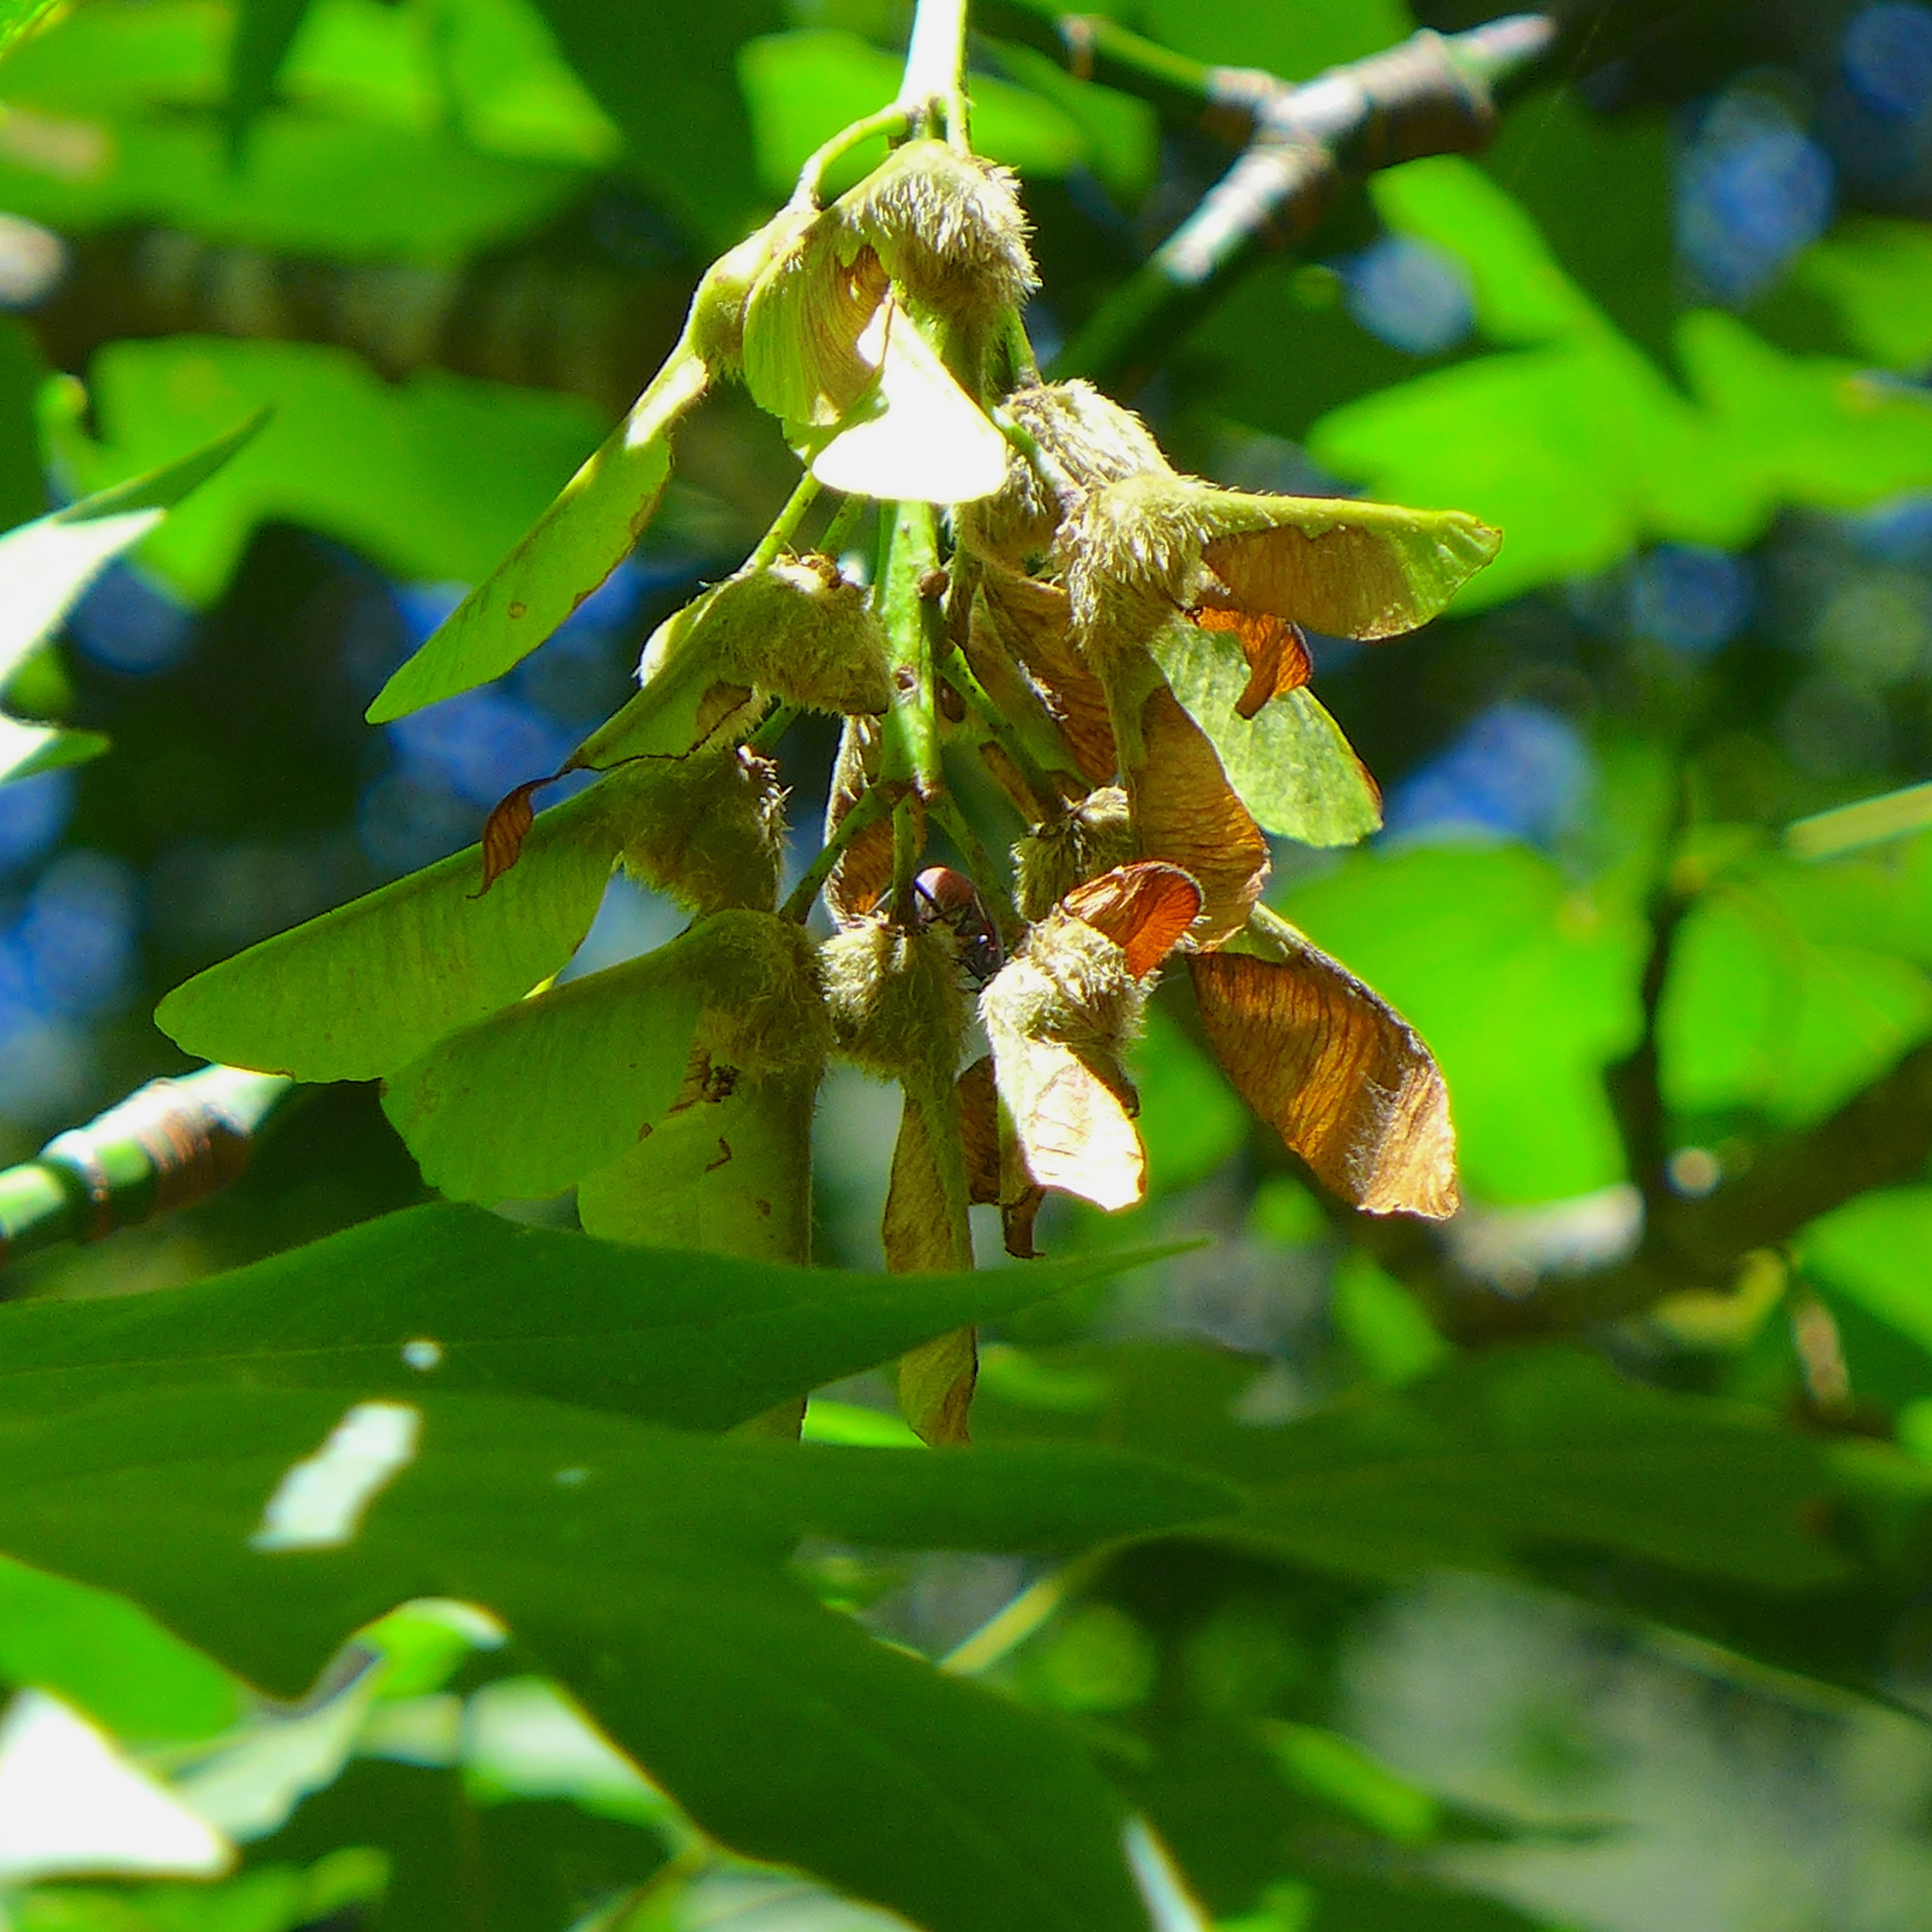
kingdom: Plantae
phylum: Tracheophyta
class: Magnoliopsida
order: Sapindales
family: Sapindaceae
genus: Acer
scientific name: Acer macrophyllum
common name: Oregon maple
